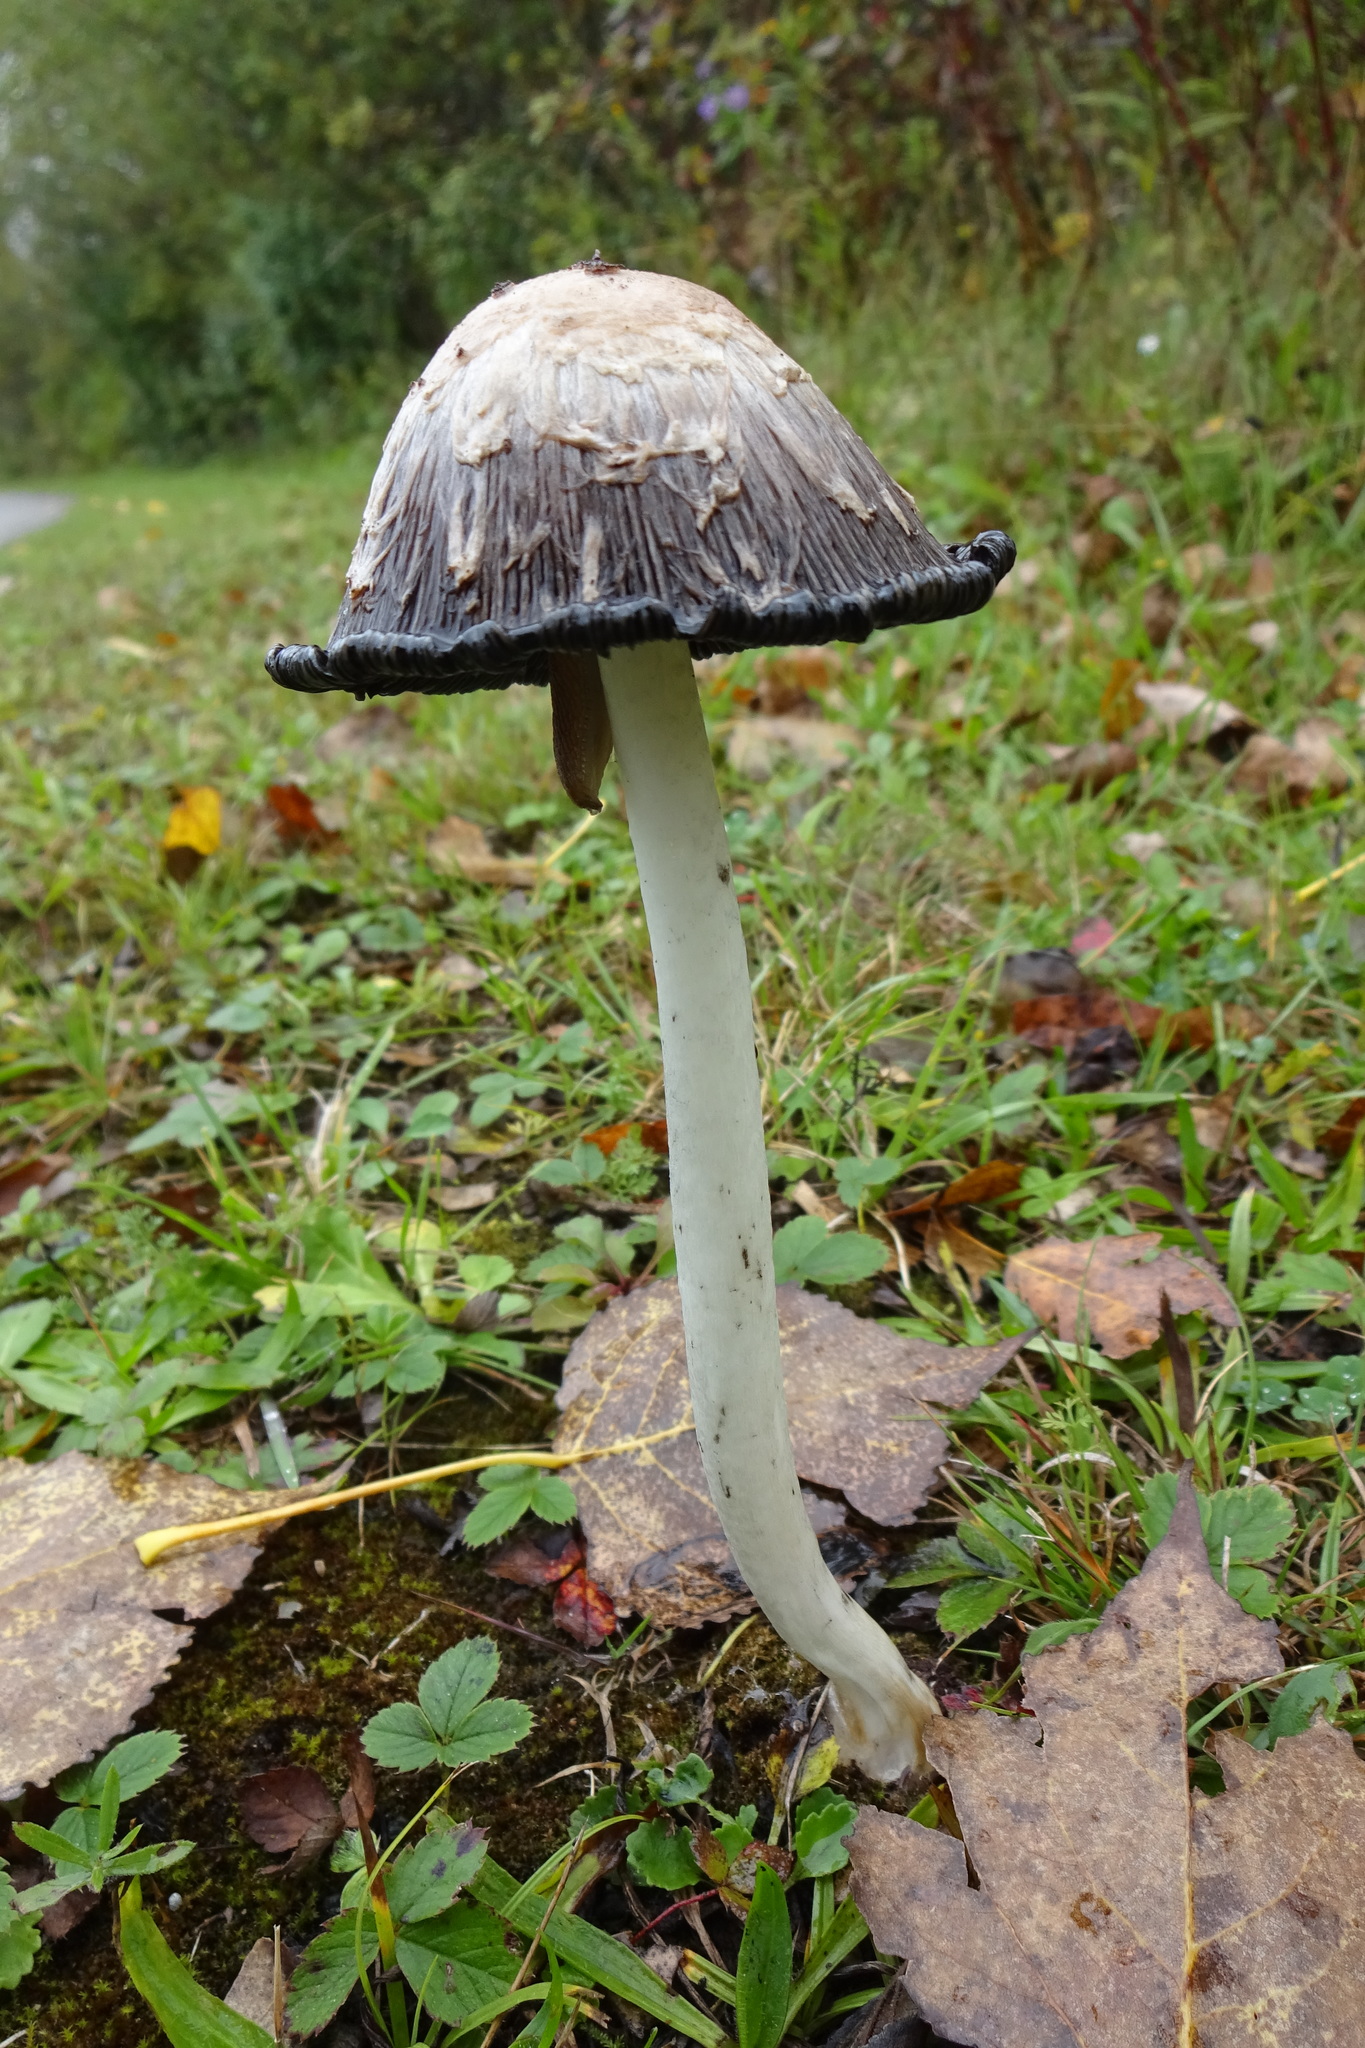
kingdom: Fungi
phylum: Basidiomycota
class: Agaricomycetes
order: Agaricales
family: Agaricaceae
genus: Coprinus
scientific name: Coprinus comatus
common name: Lawyer's wig
